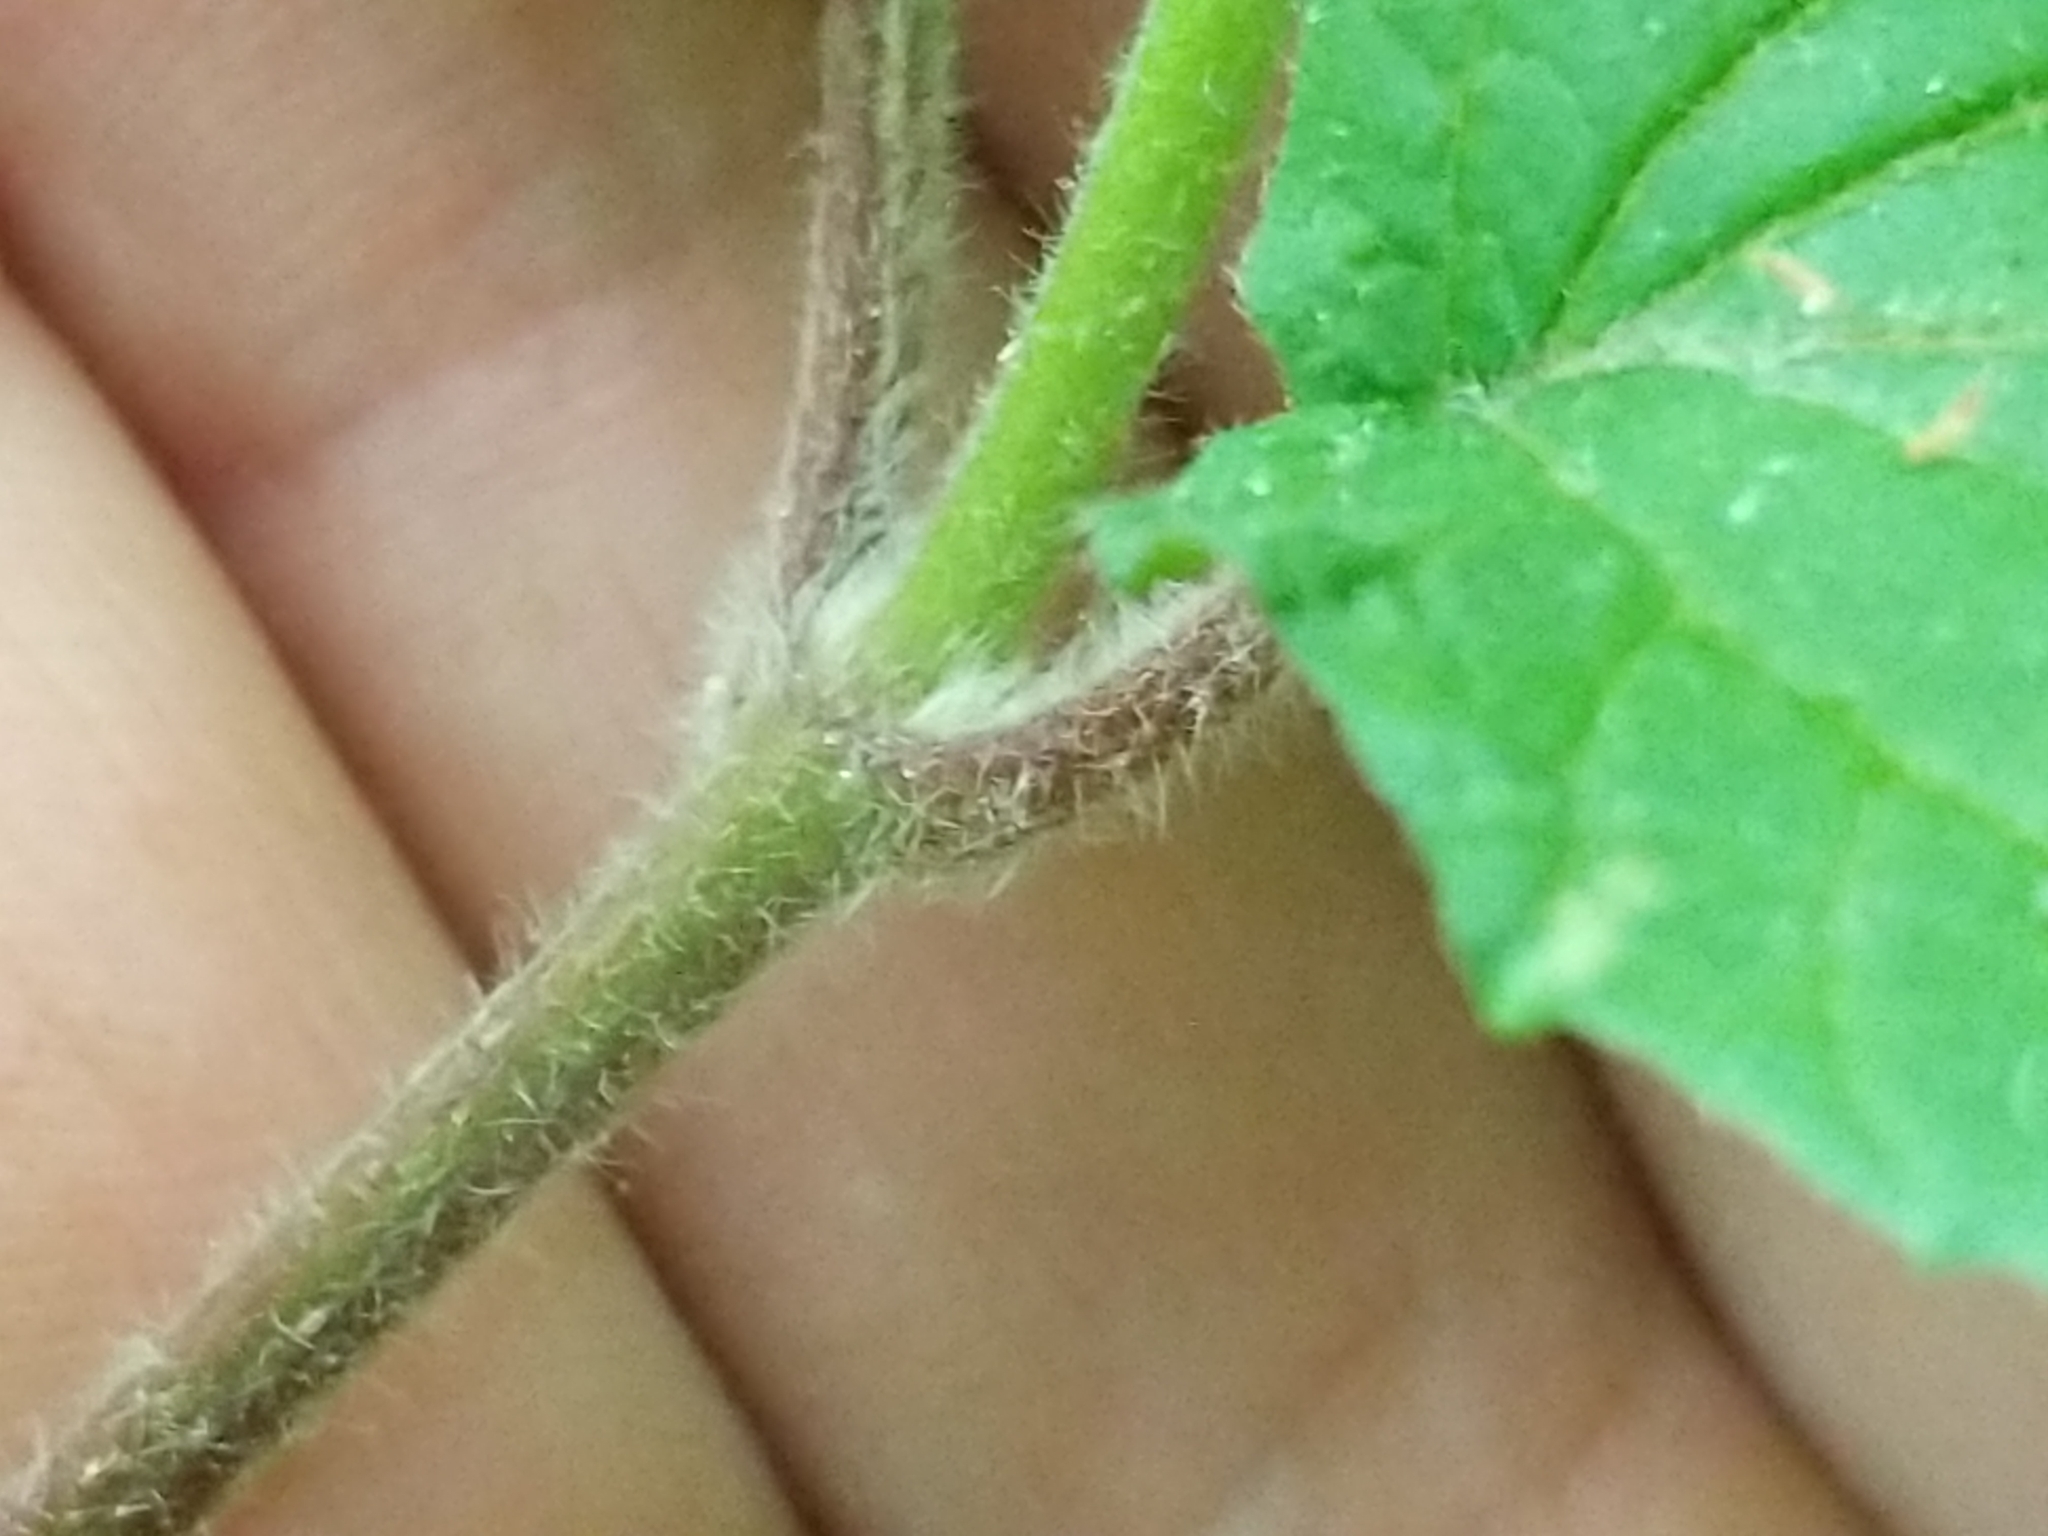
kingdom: Plantae
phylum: Tracheophyta
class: Magnoliopsida
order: Dipsacales
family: Viburnaceae
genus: Viburnum
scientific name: Viburnum dilatatum
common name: Linden arrowwood
